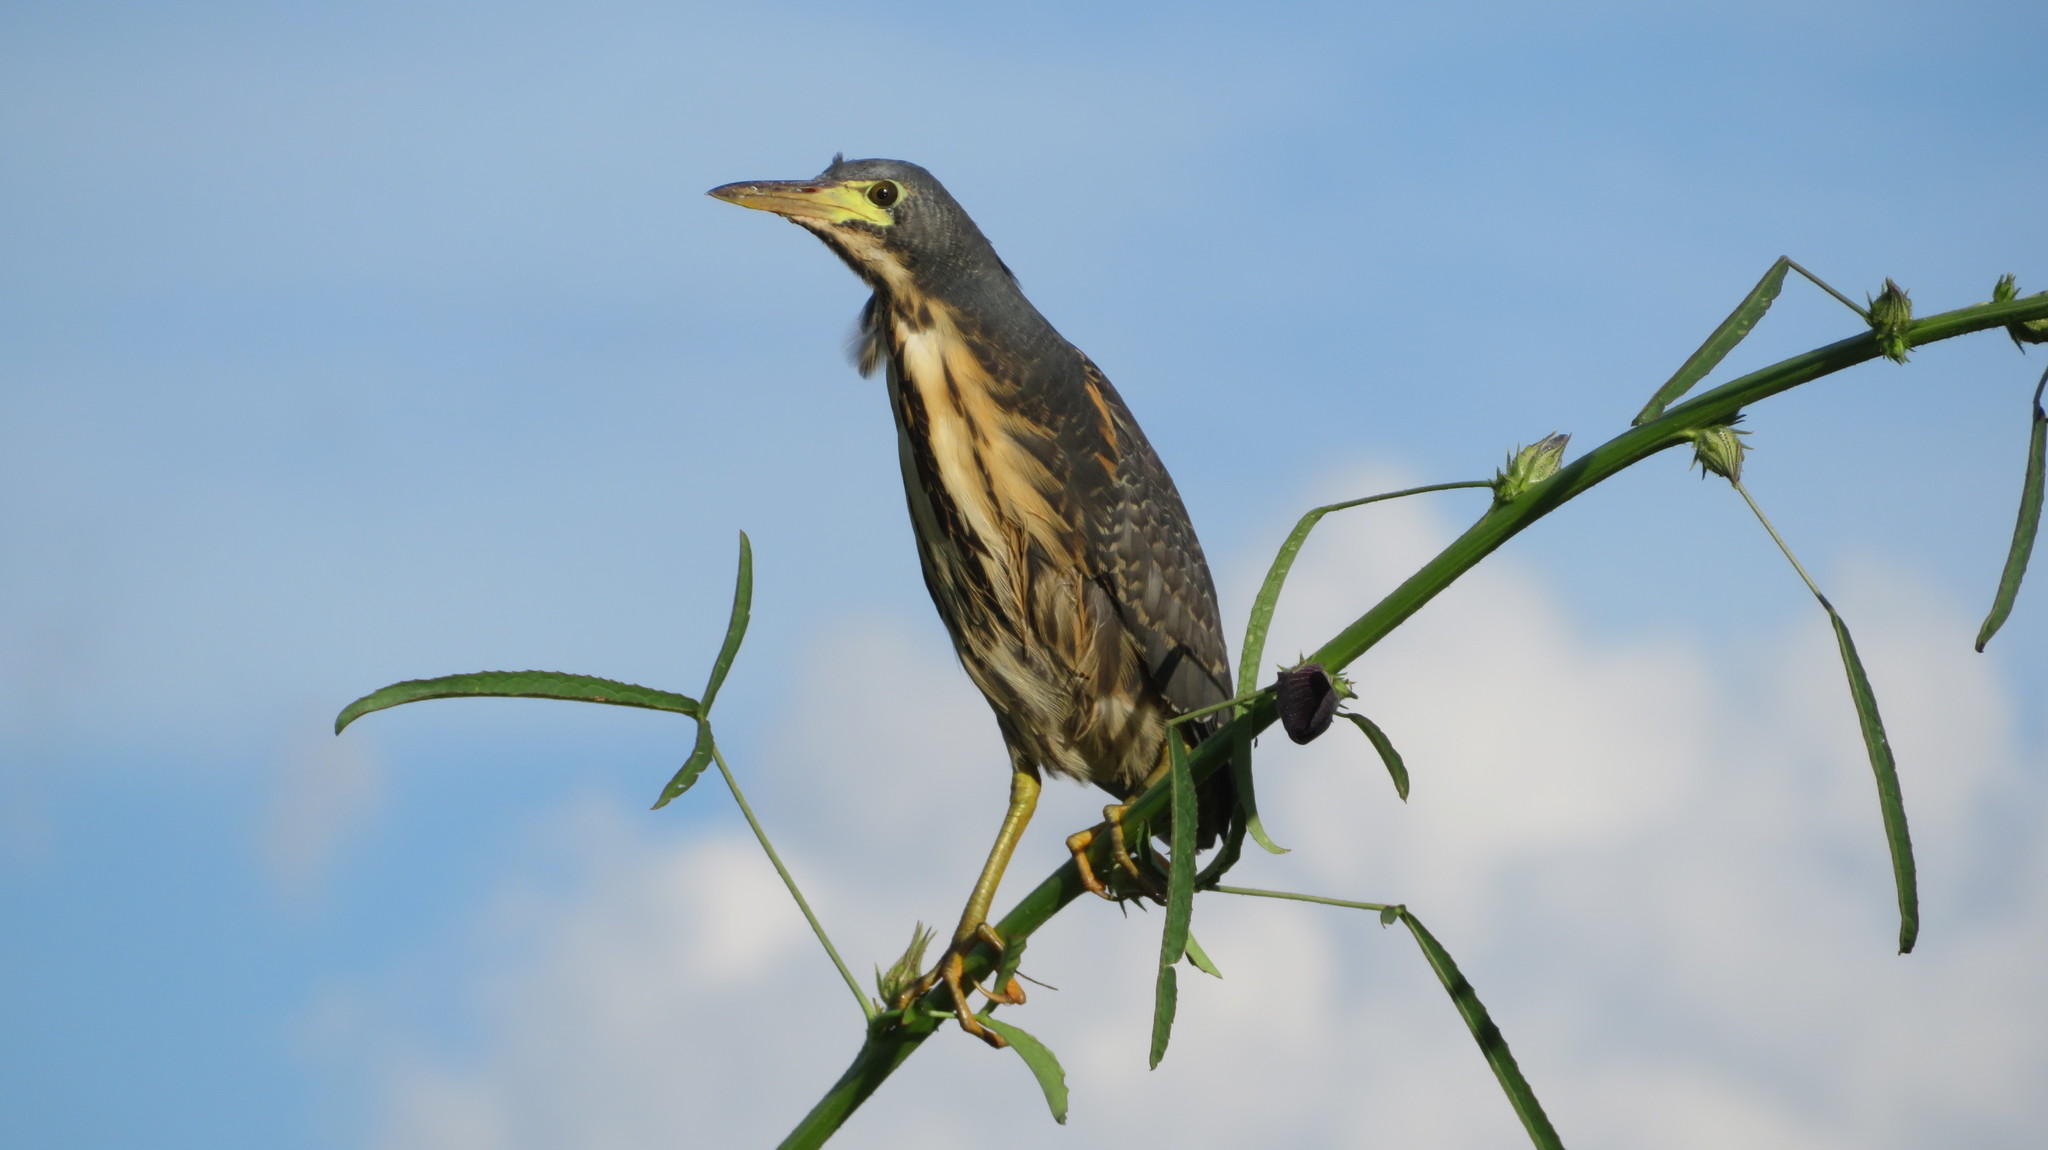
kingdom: Animalia
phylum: Chordata
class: Aves
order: Pelecaniformes
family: Ardeidae
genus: Ixobrychus
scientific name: Ixobrychus sturmii
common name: Dwarf bittern
